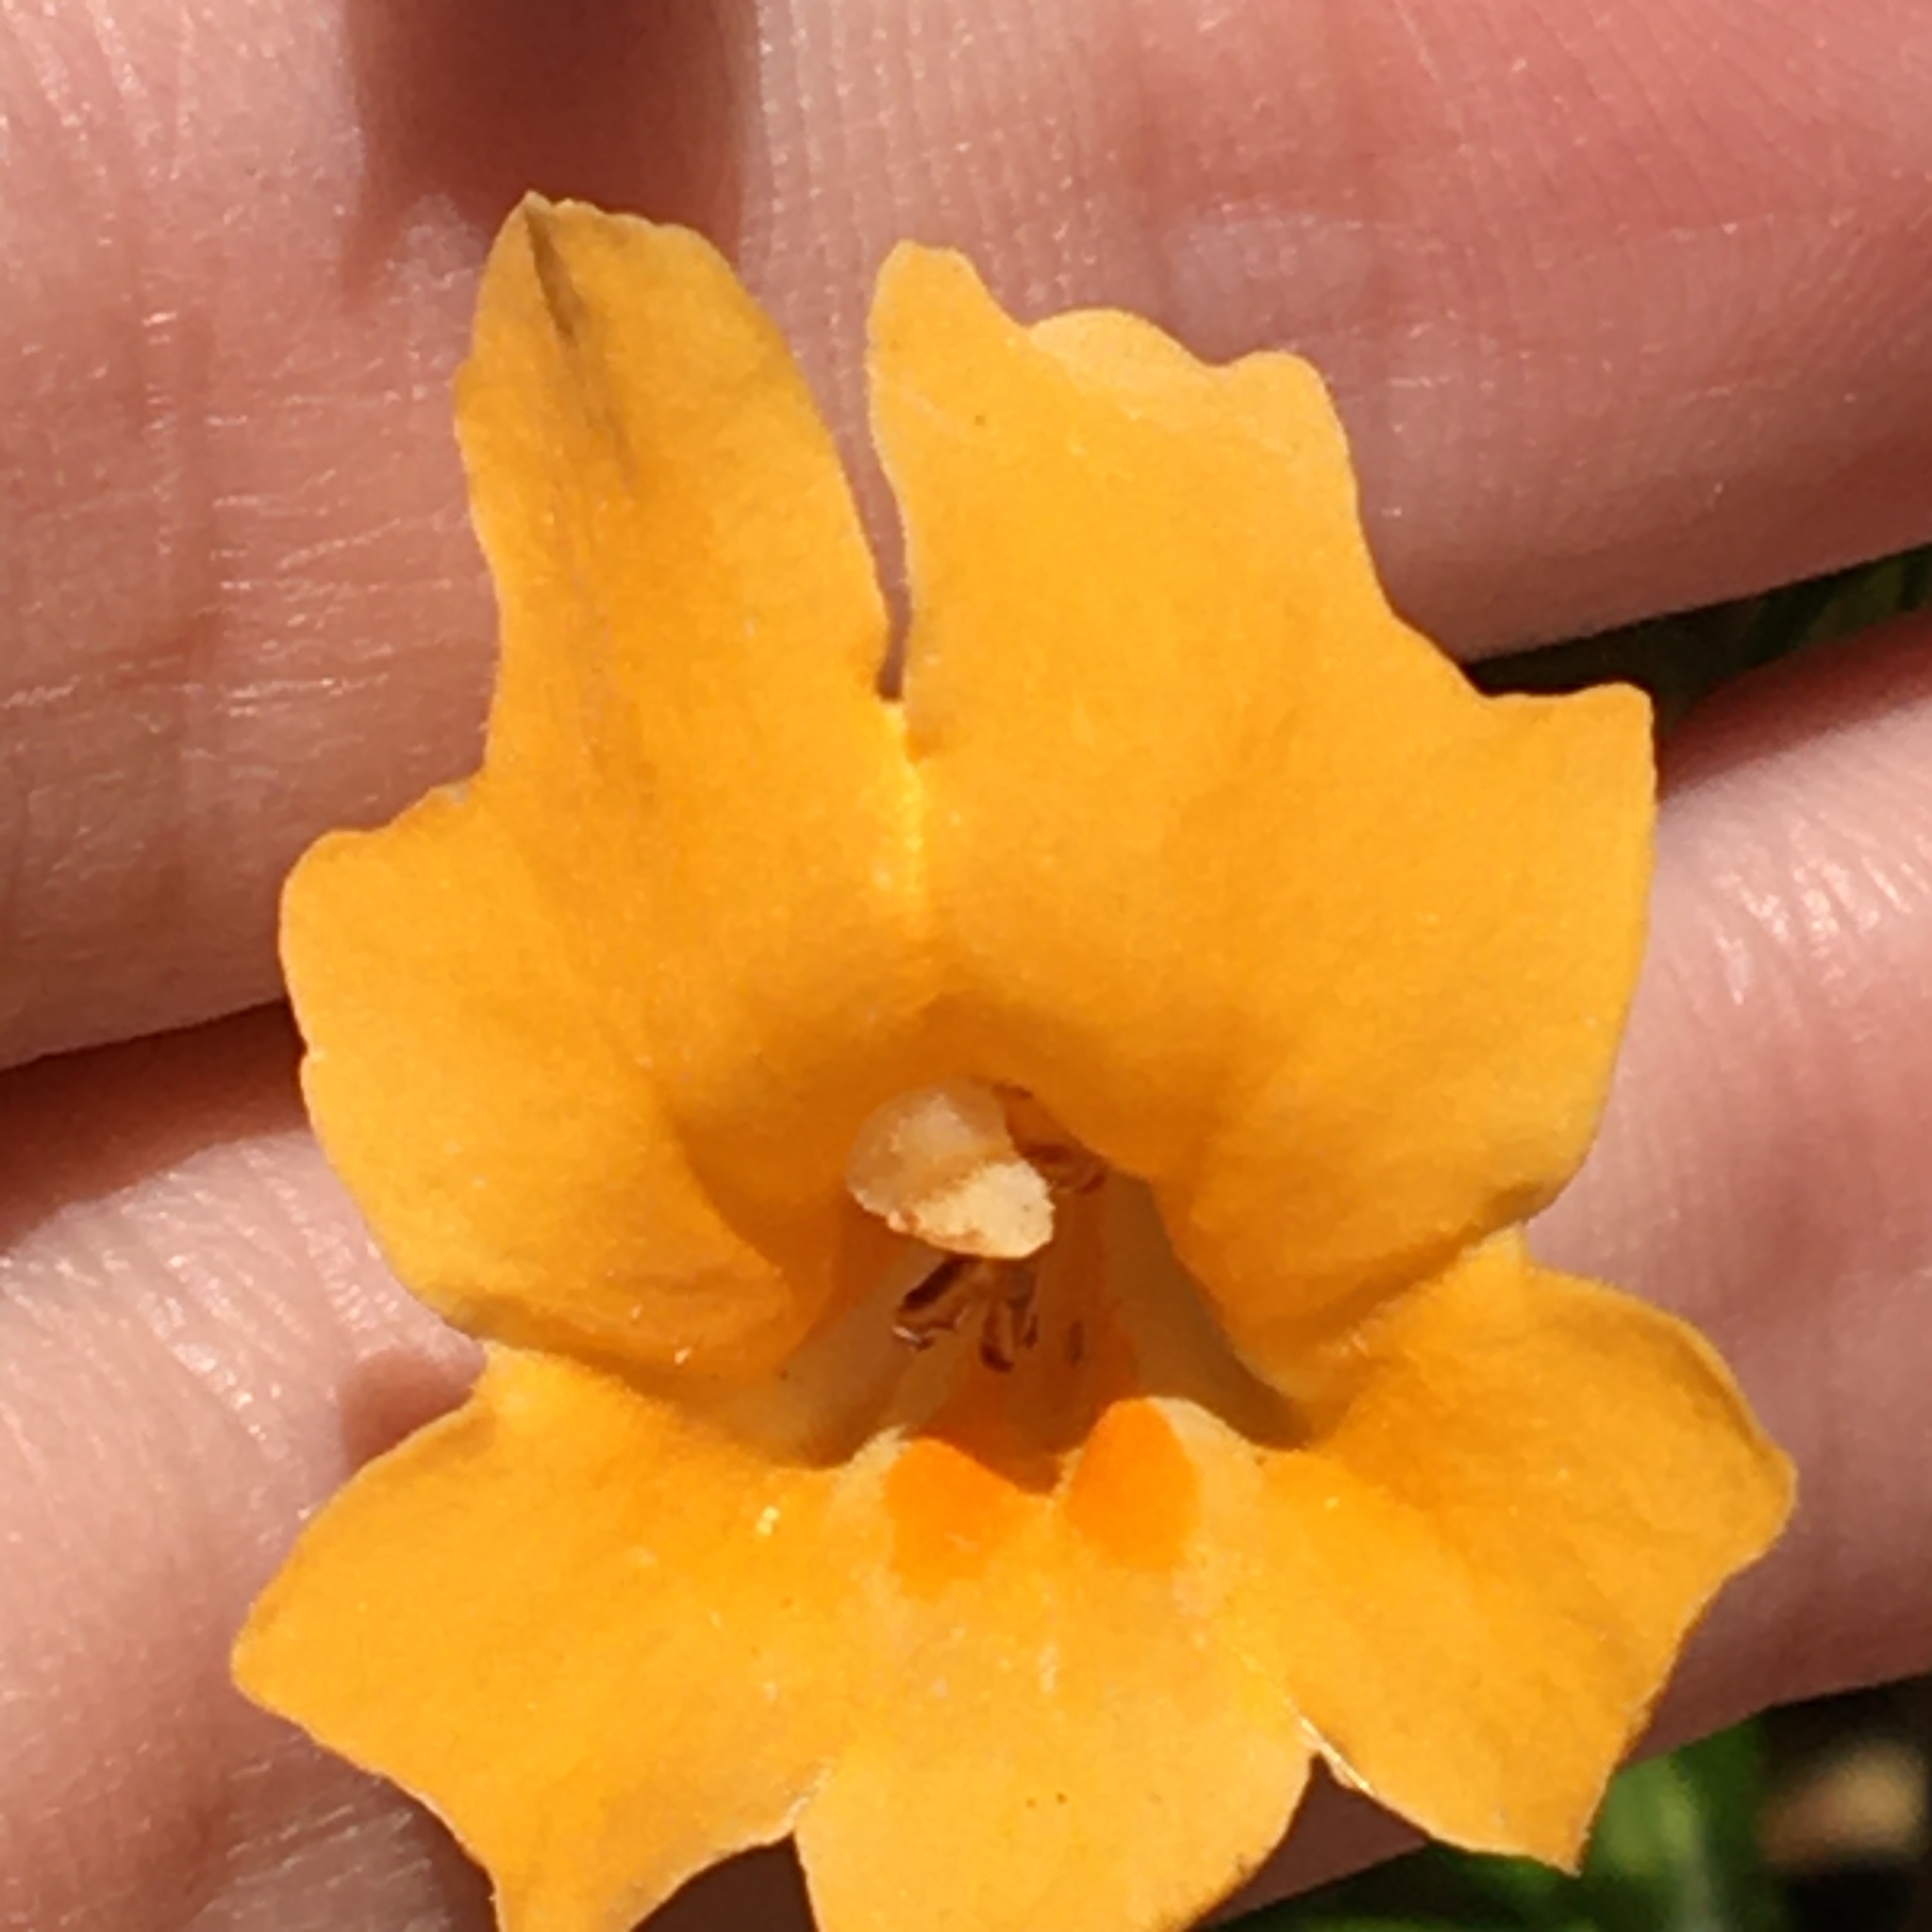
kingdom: Plantae
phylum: Tracheophyta
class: Magnoliopsida
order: Lamiales
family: Phrymaceae
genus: Diplacus
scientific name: Diplacus aurantiacus
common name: Bush monkey-flower
